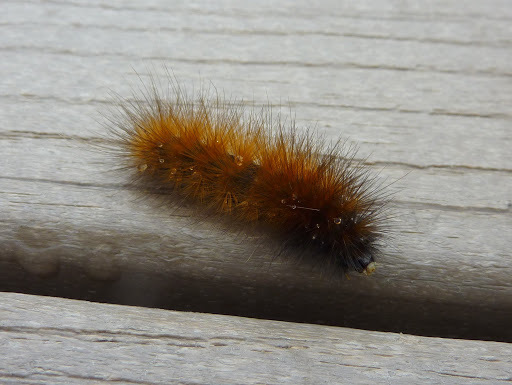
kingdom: Animalia
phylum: Arthropoda
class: Insecta
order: Lepidoptera
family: Erebidae
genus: Spilosoma
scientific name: Spilosoma virginica
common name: Virginia tiger moth
